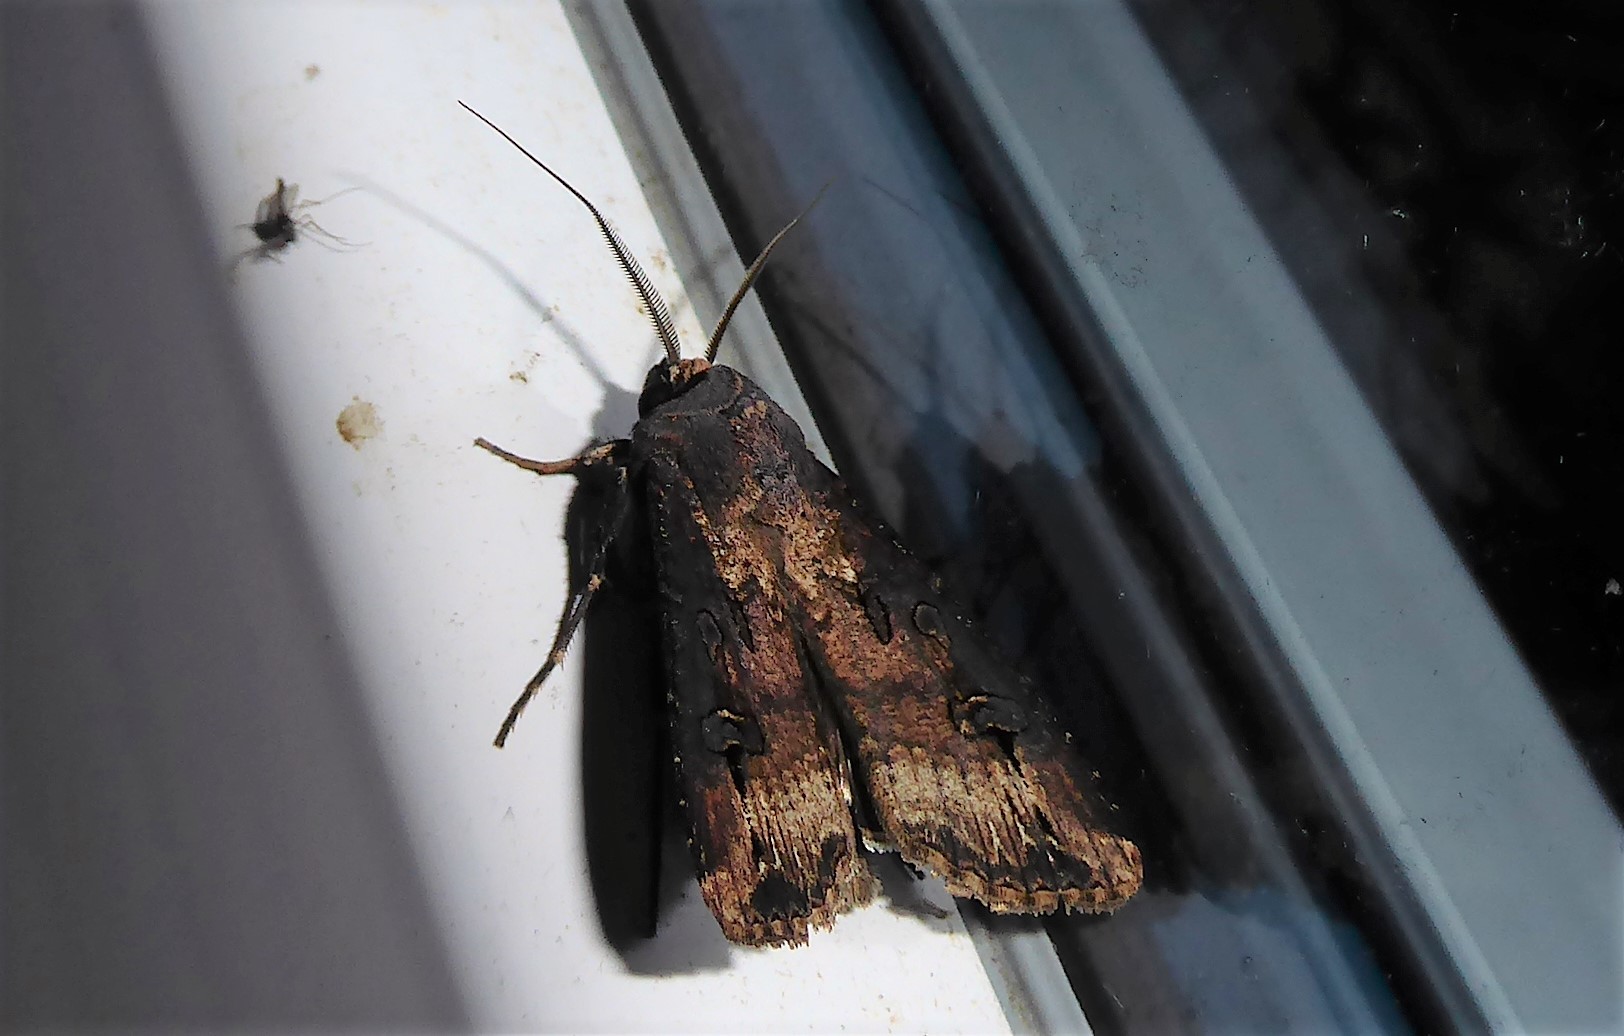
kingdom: Animalia
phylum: Arthropoda
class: Insecta
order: Lepidoptera
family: Noctuidae
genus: Agrotis
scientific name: Agrotis ipsilon
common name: Dark sword-grass
